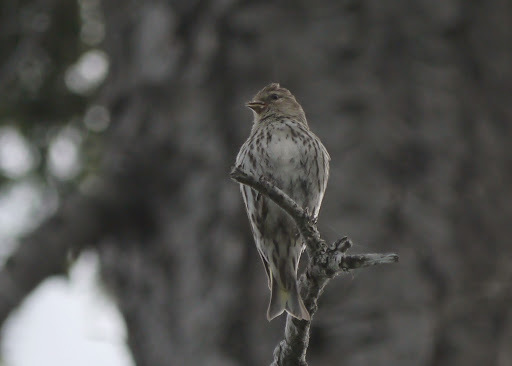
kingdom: Animalia
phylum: Chordata
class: Aves
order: Passeriformes
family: Fringillidae
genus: Spinus
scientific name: Spinus pinus
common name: Pine siskin
